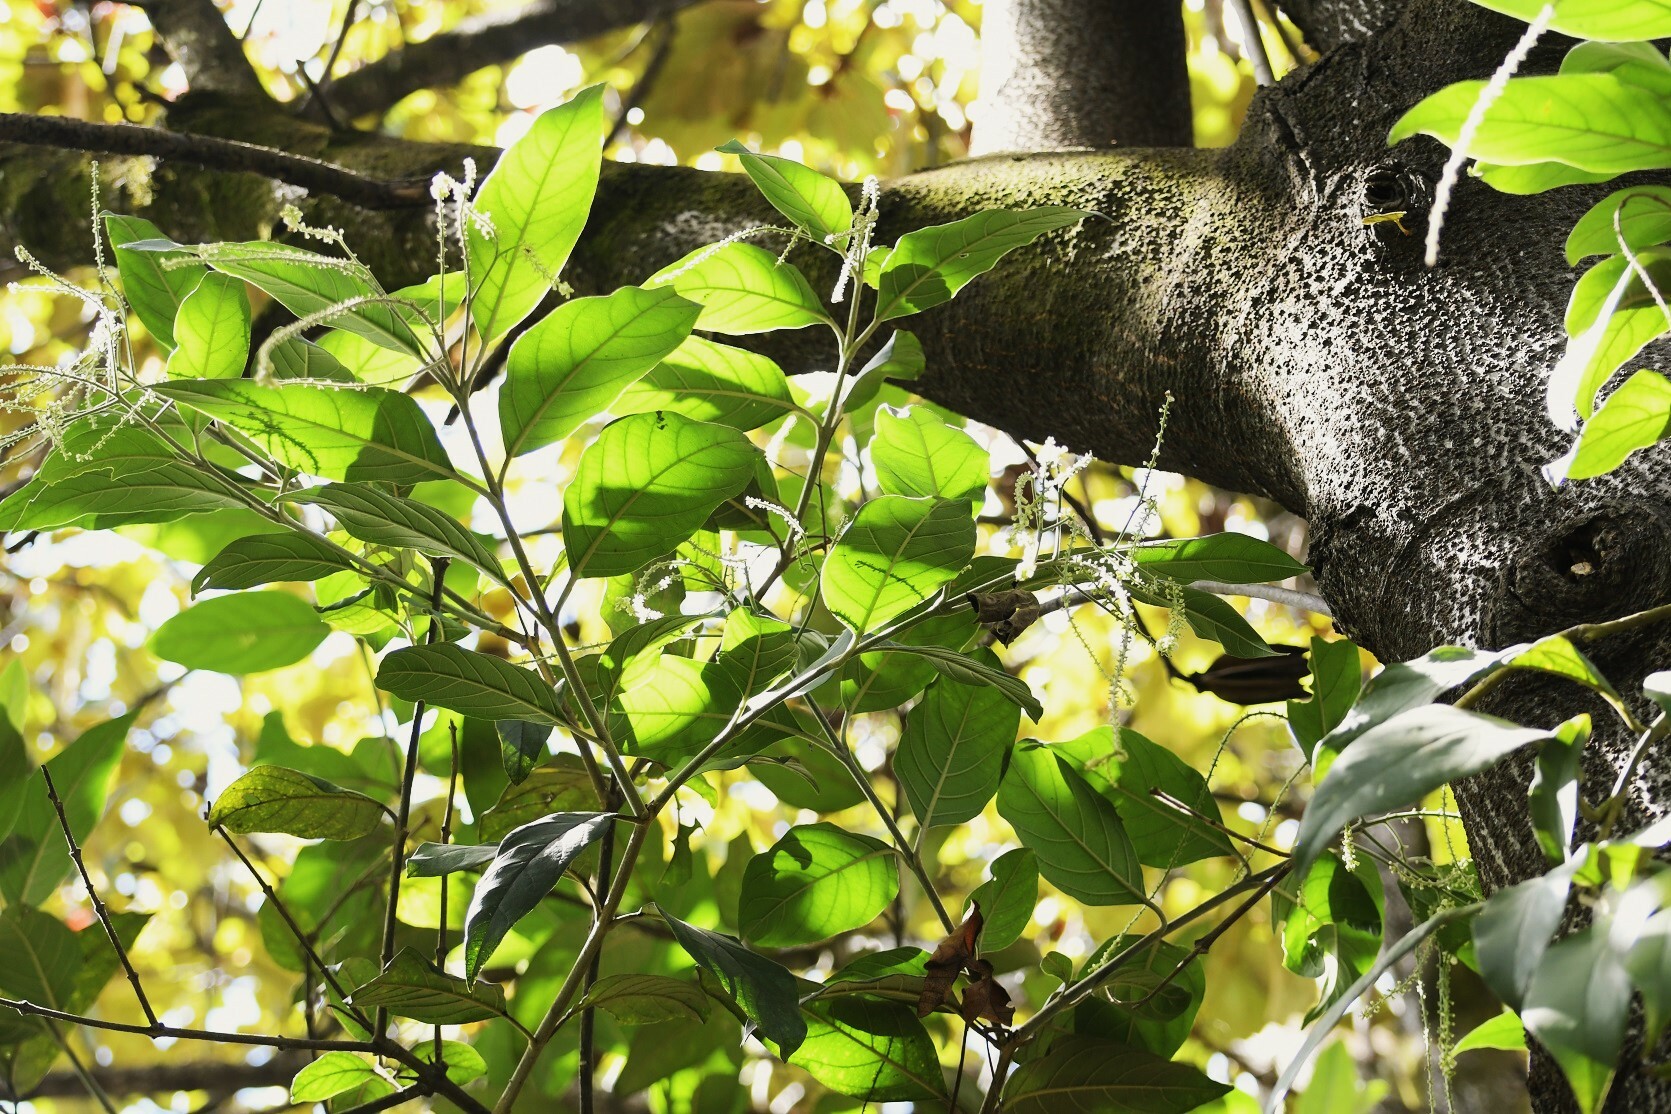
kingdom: Plantae
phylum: Tracheophyta
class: Magnoliopsida
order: Lamiales
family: Verbenaceae
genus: Citharexylum
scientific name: Citharexylum mocinoi
